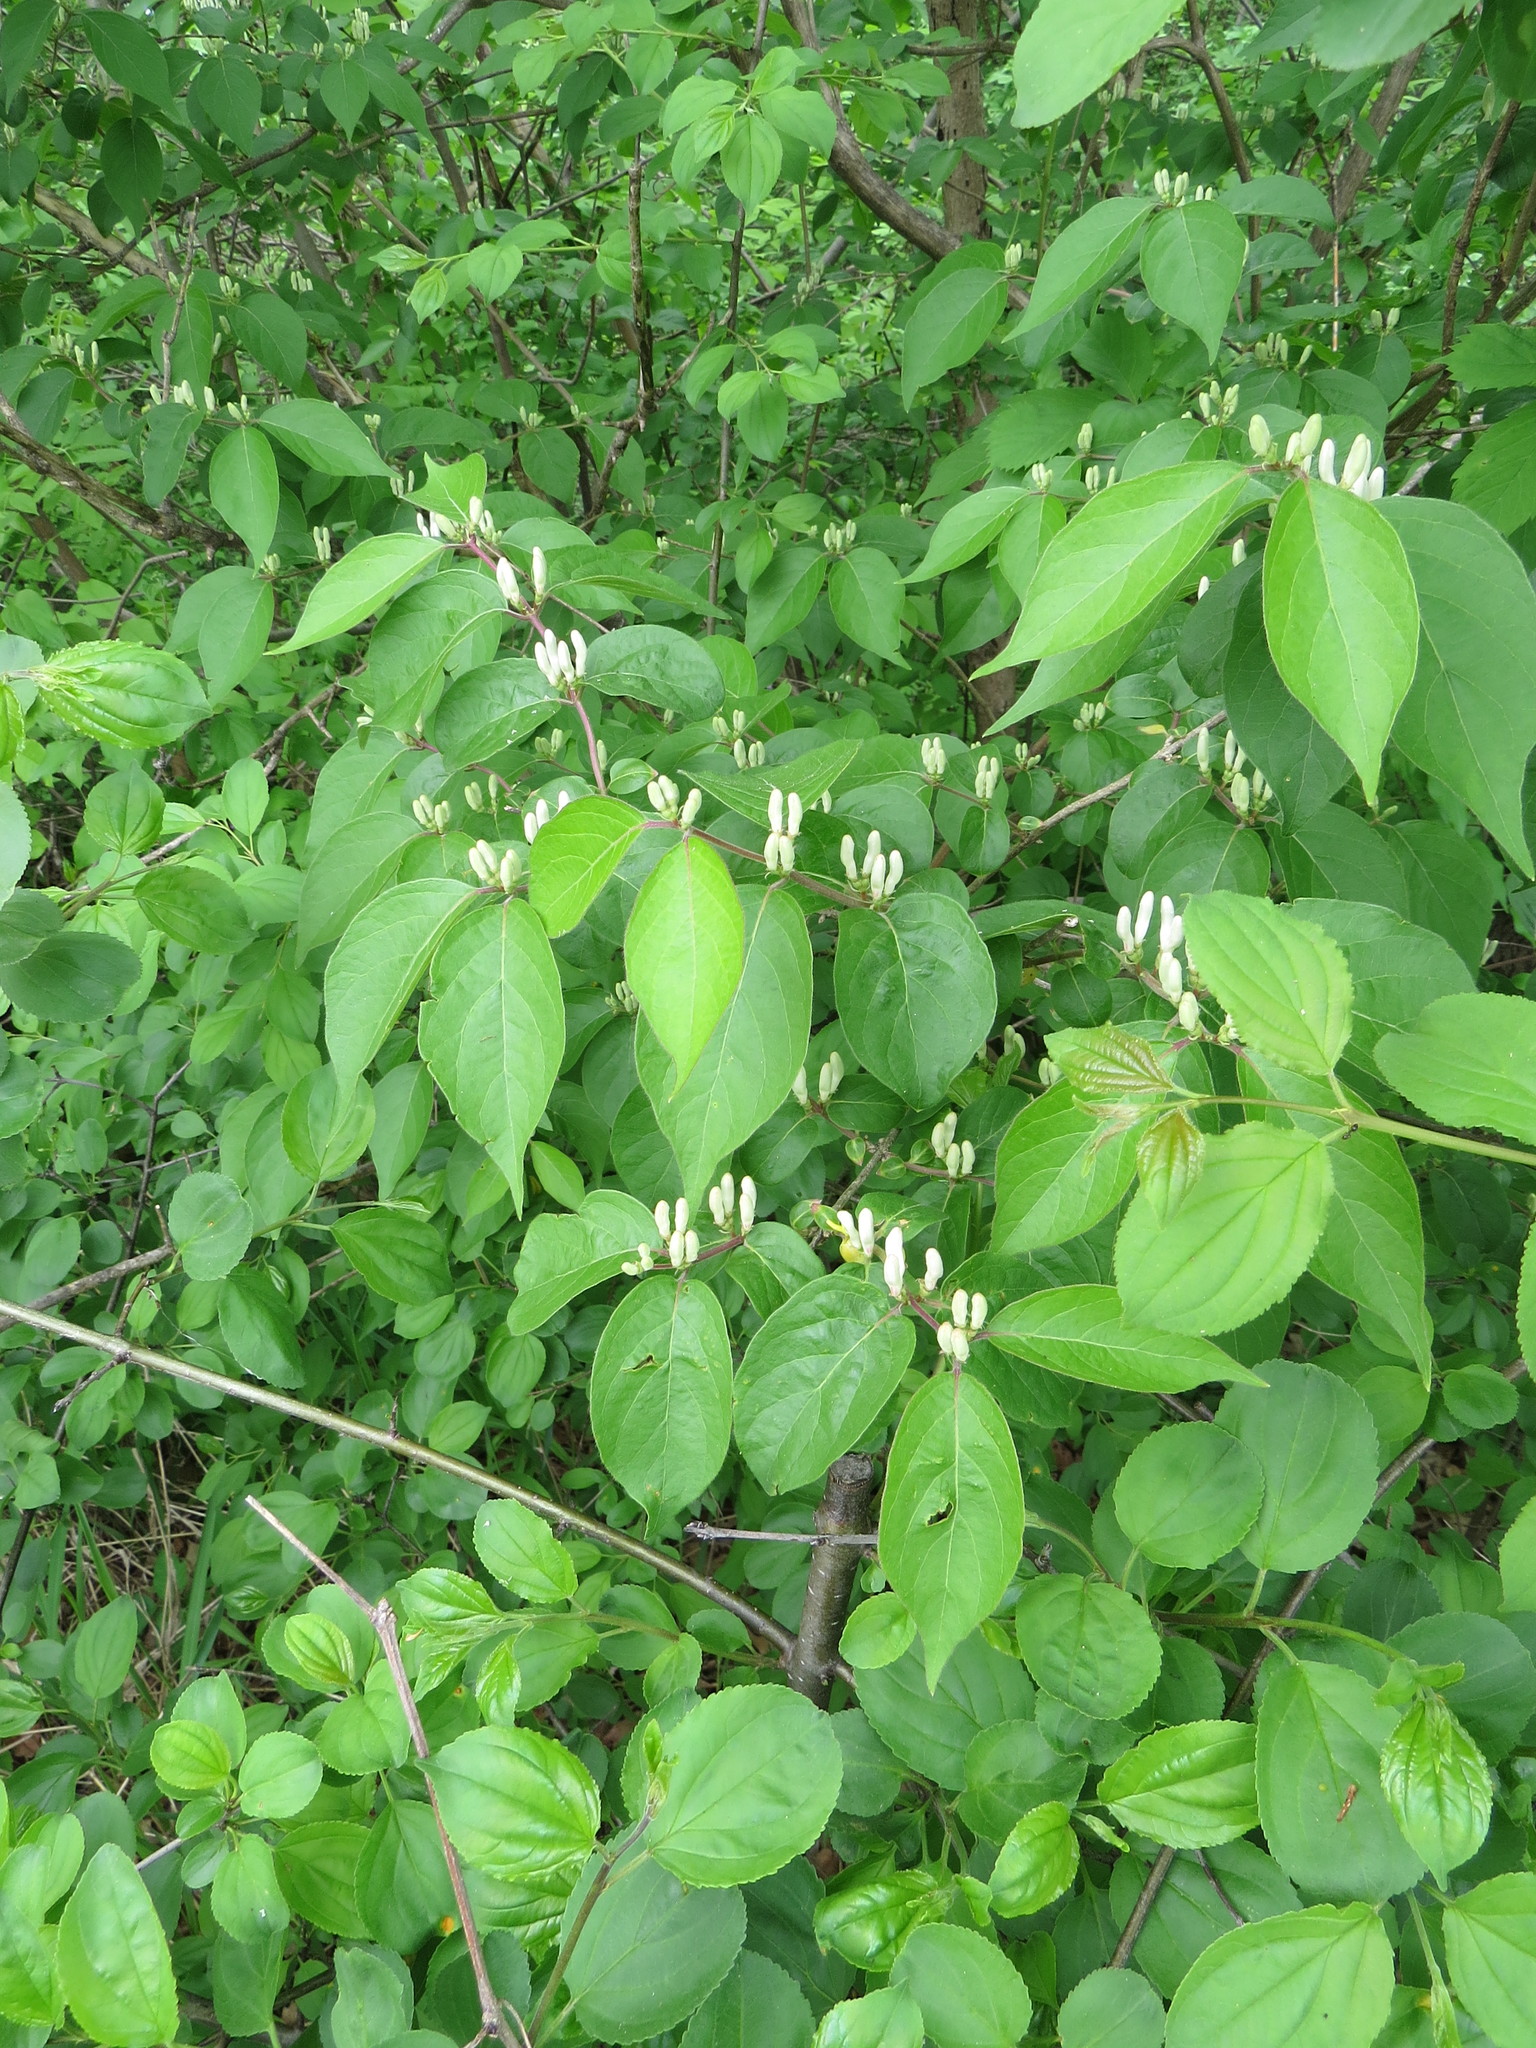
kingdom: Plantae
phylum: Tracheophyta
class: Magnoliopsida
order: Dipsacales
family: Caprifoliaceae
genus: Lonicera
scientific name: Lonicera maackii
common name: Amur honeysuckle
